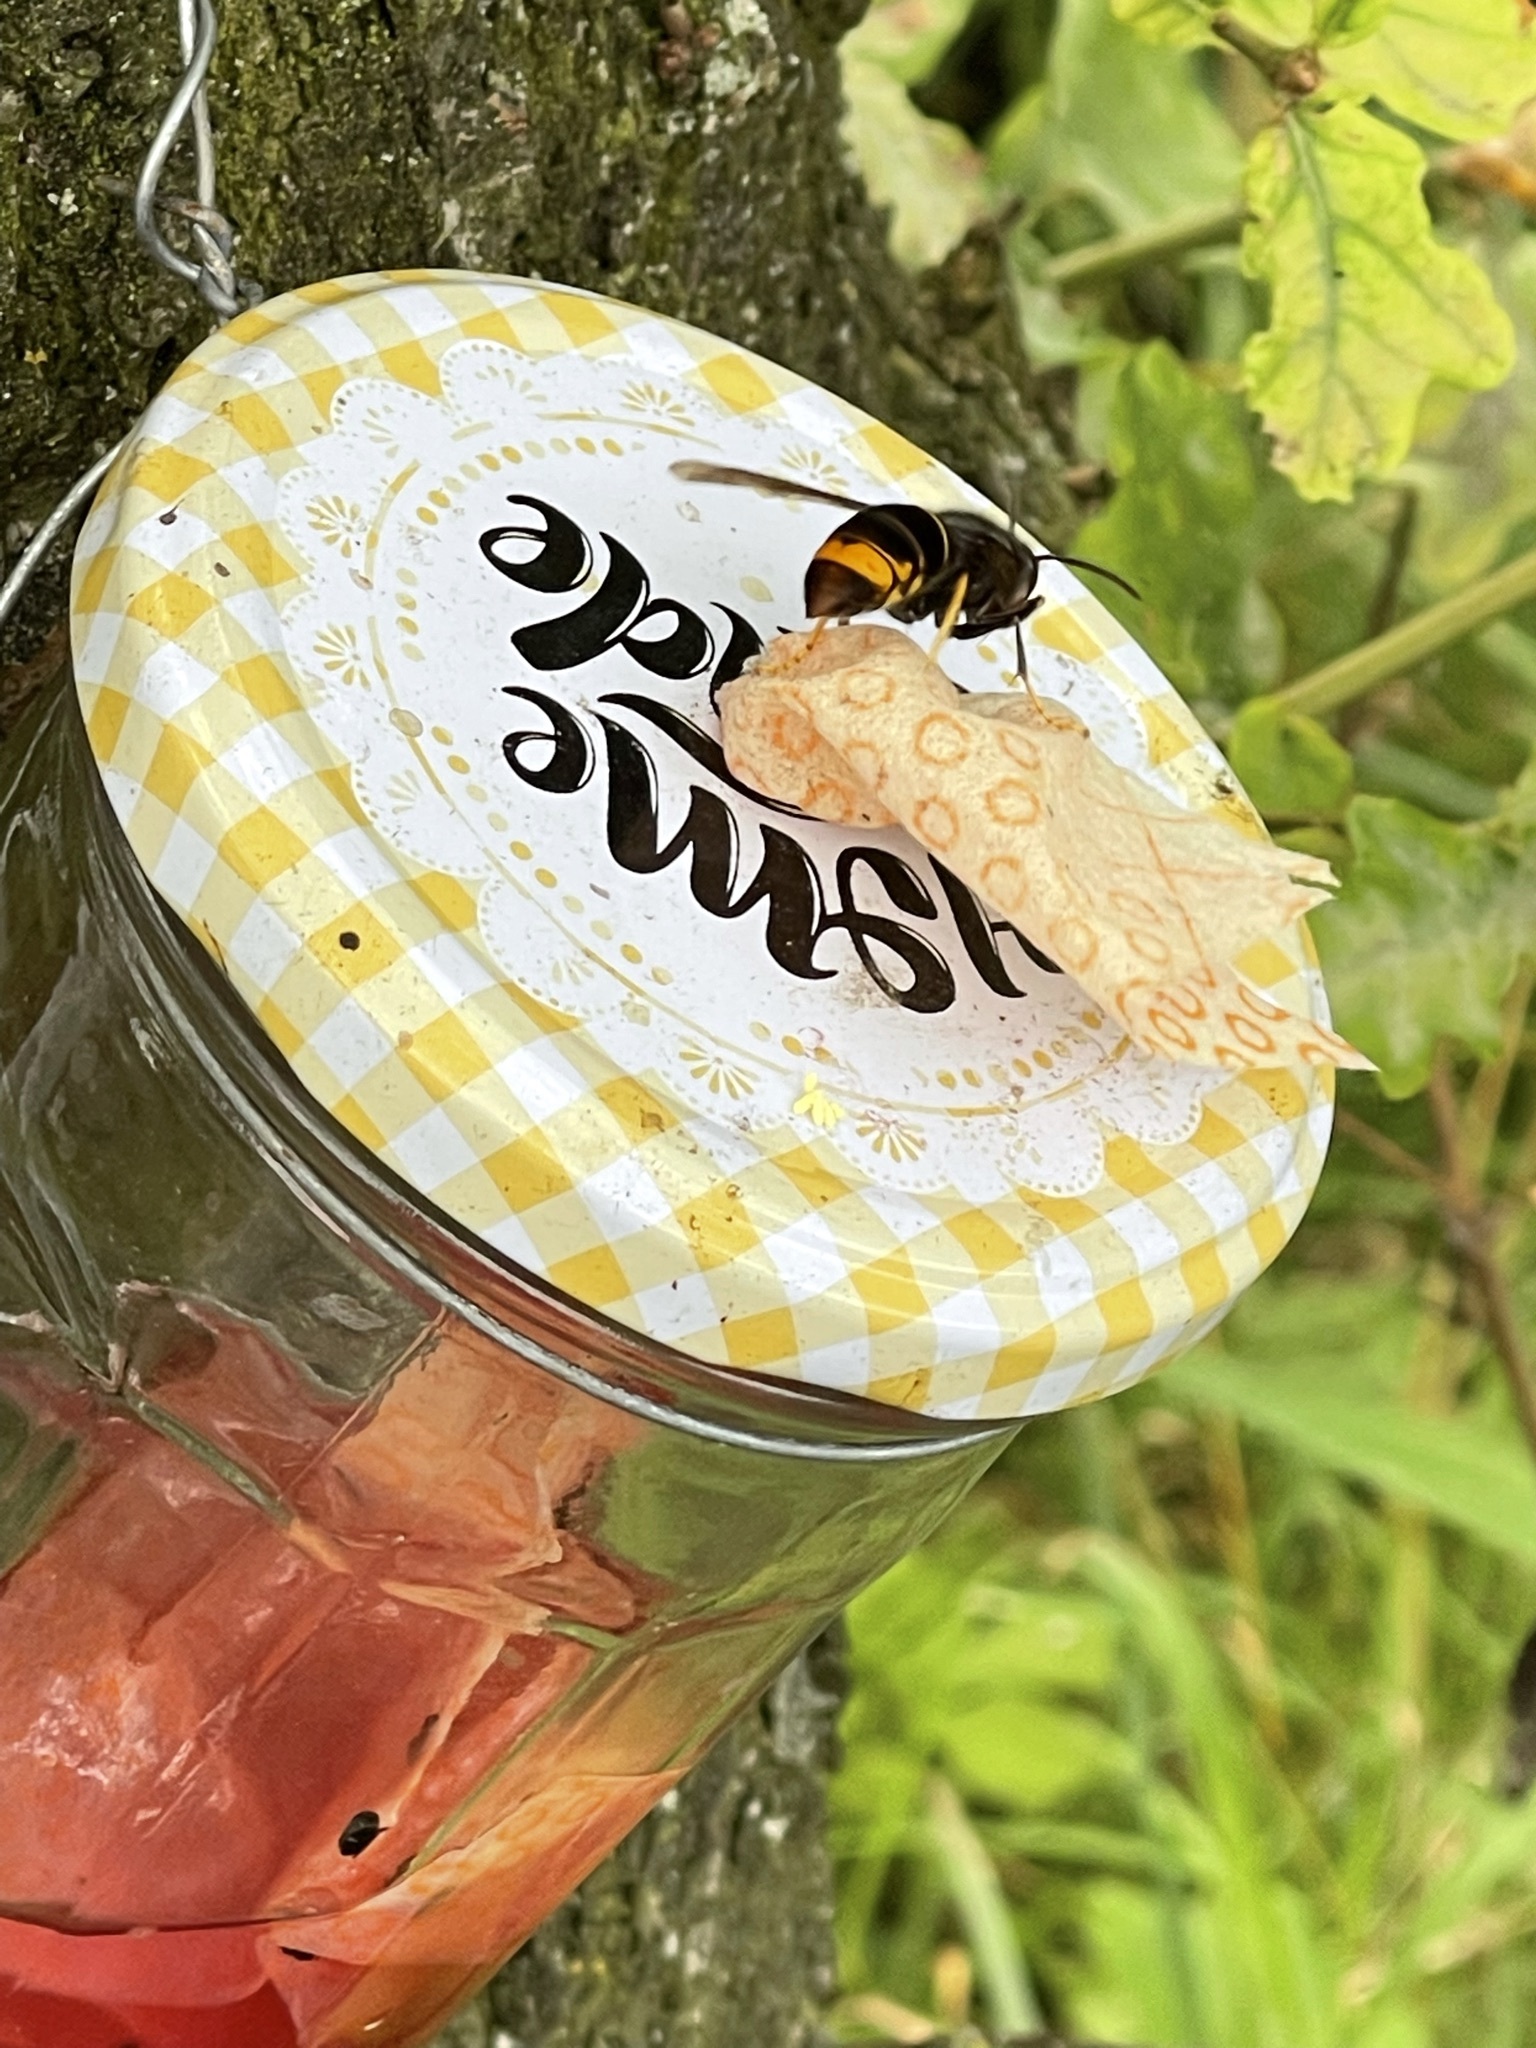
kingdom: Animalia
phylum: Arthropoda
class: Insecta
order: Hymenoptera
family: Vespidae
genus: Vespa
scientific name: Vespa velutina
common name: Asian hornet
